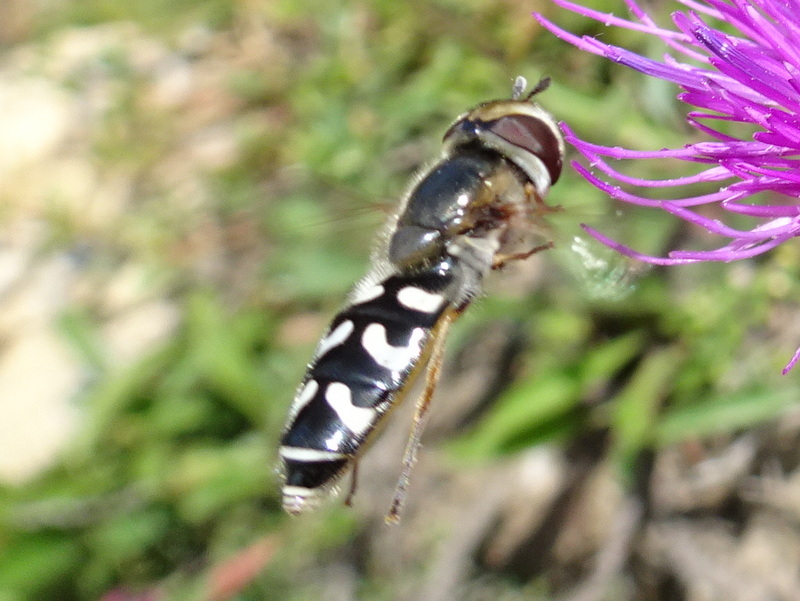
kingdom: Animalia
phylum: Arthropoda
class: Insecta
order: Diptera
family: Syrphidae
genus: Scaeva
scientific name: Scaeva pyrastri
